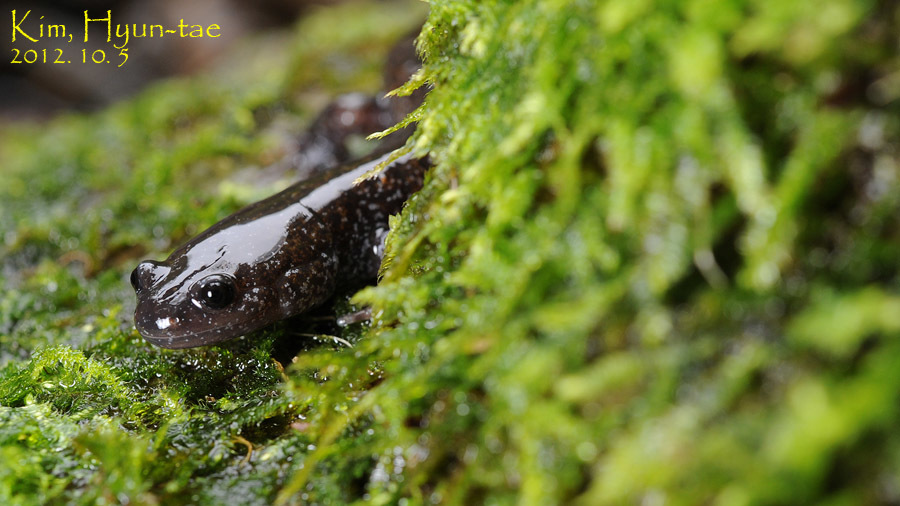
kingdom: Animalia
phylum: Chordata
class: Amphibia
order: Caudata
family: Hynobiidae
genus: Hynobius
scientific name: Hynobius leechii
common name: Gensan salamander
